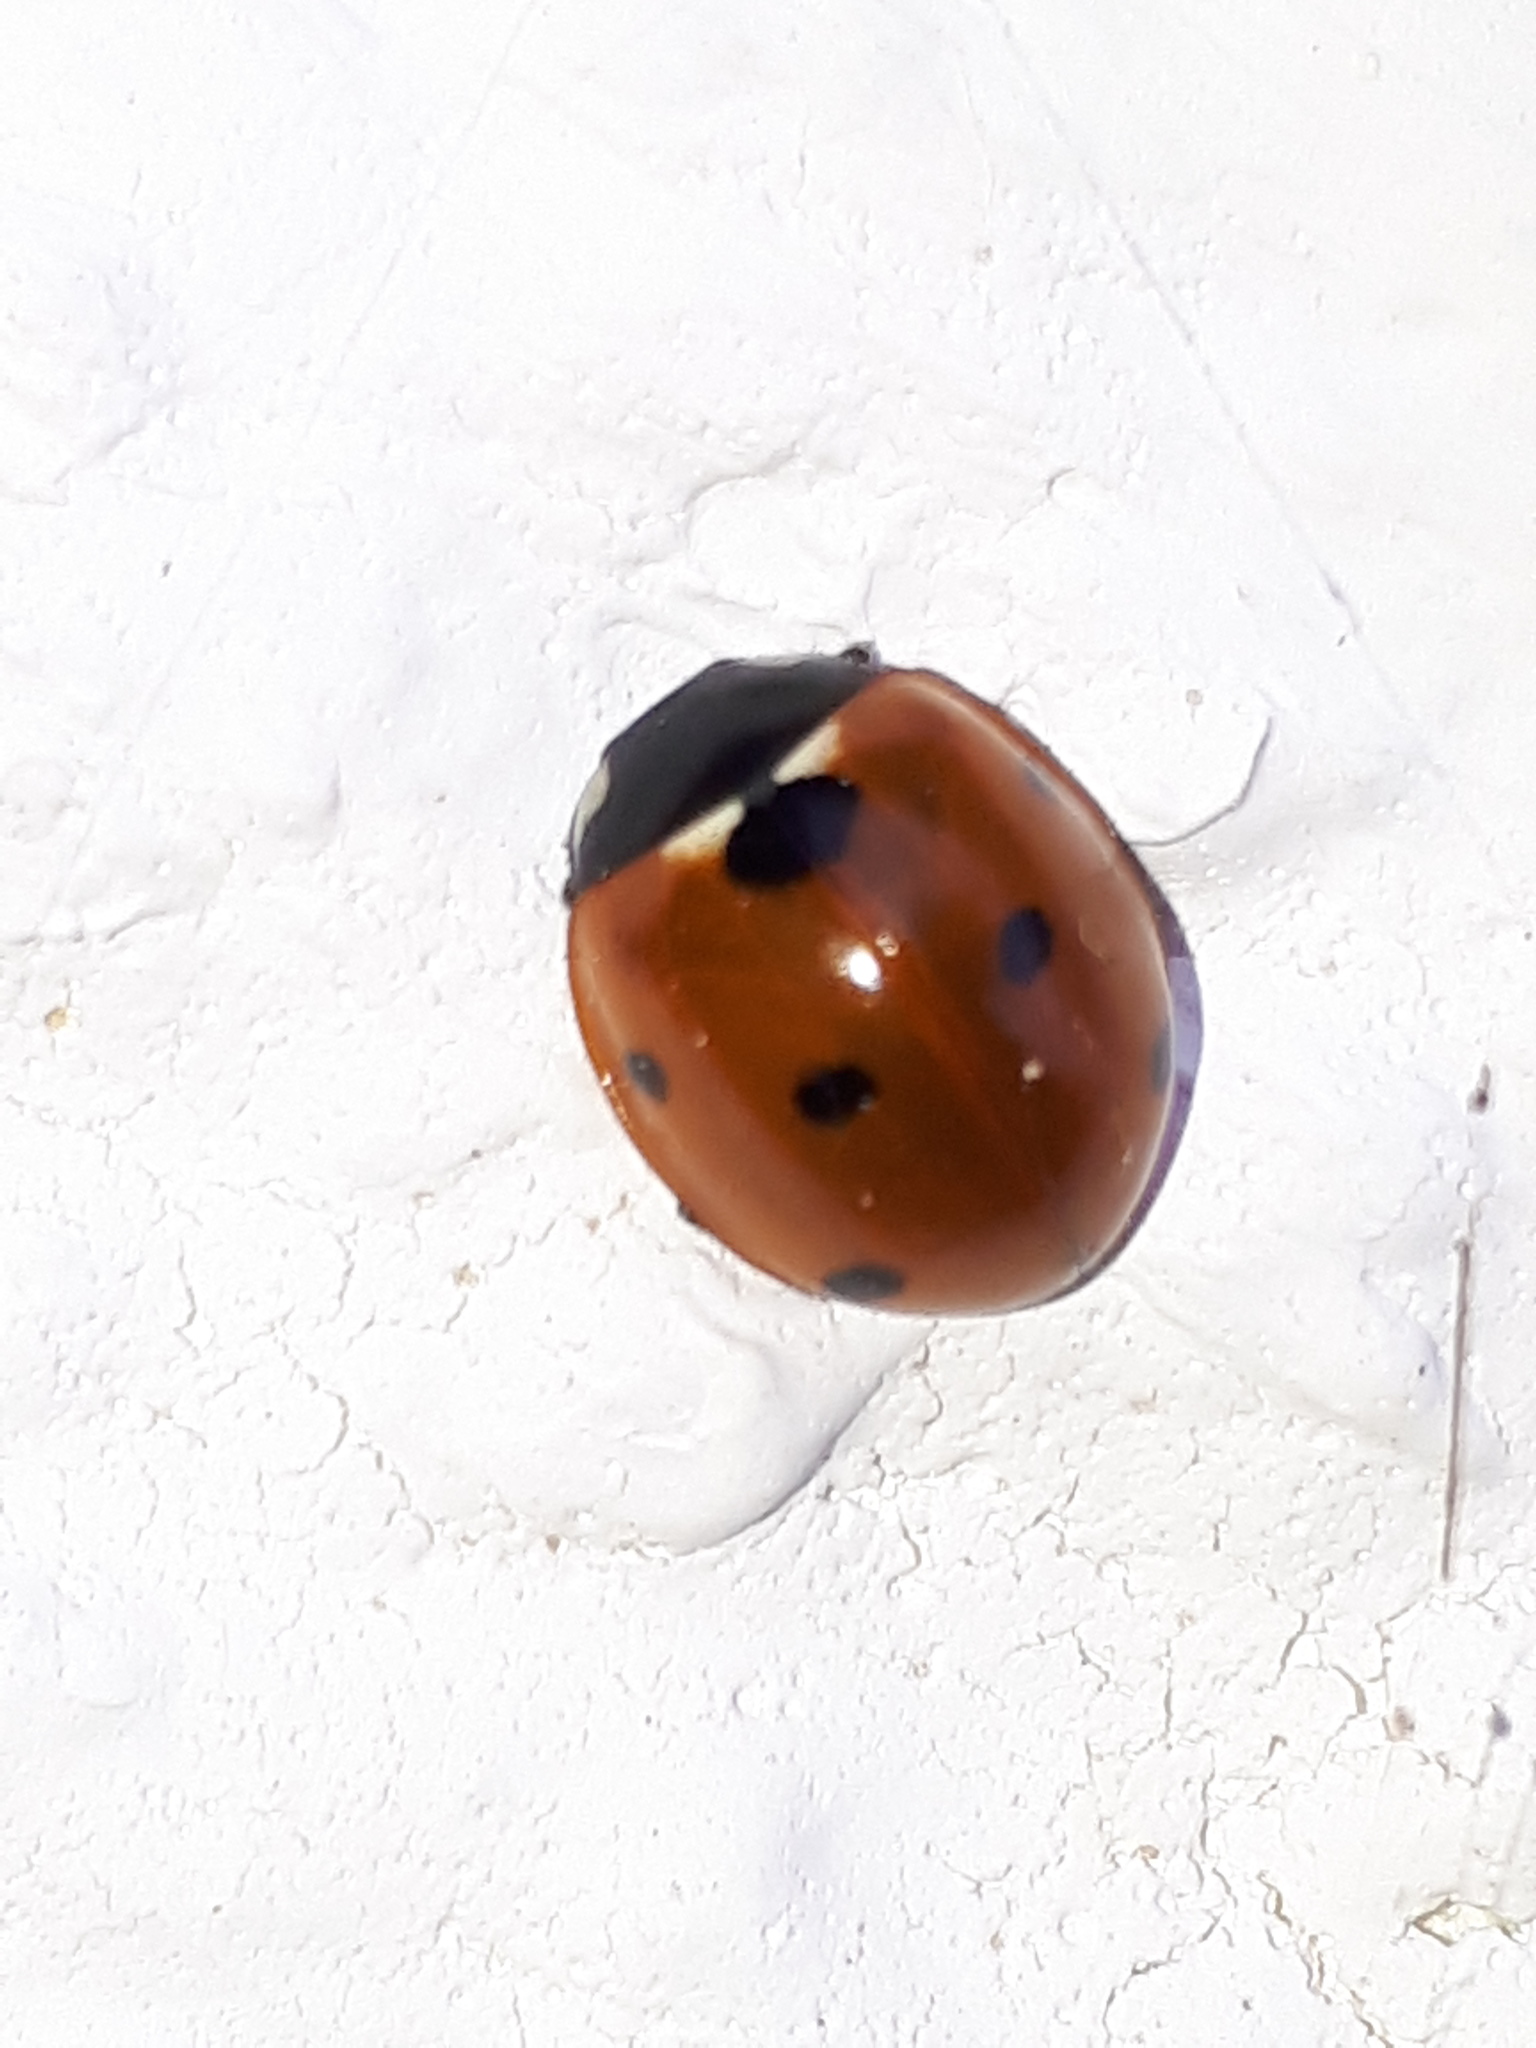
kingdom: Animalia
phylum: Arthropoda
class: Insecta
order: Coleoptera
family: Coccinellidae
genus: Coccinella
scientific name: Coccinella septempunctata
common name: Sevenspotted lady beetle
